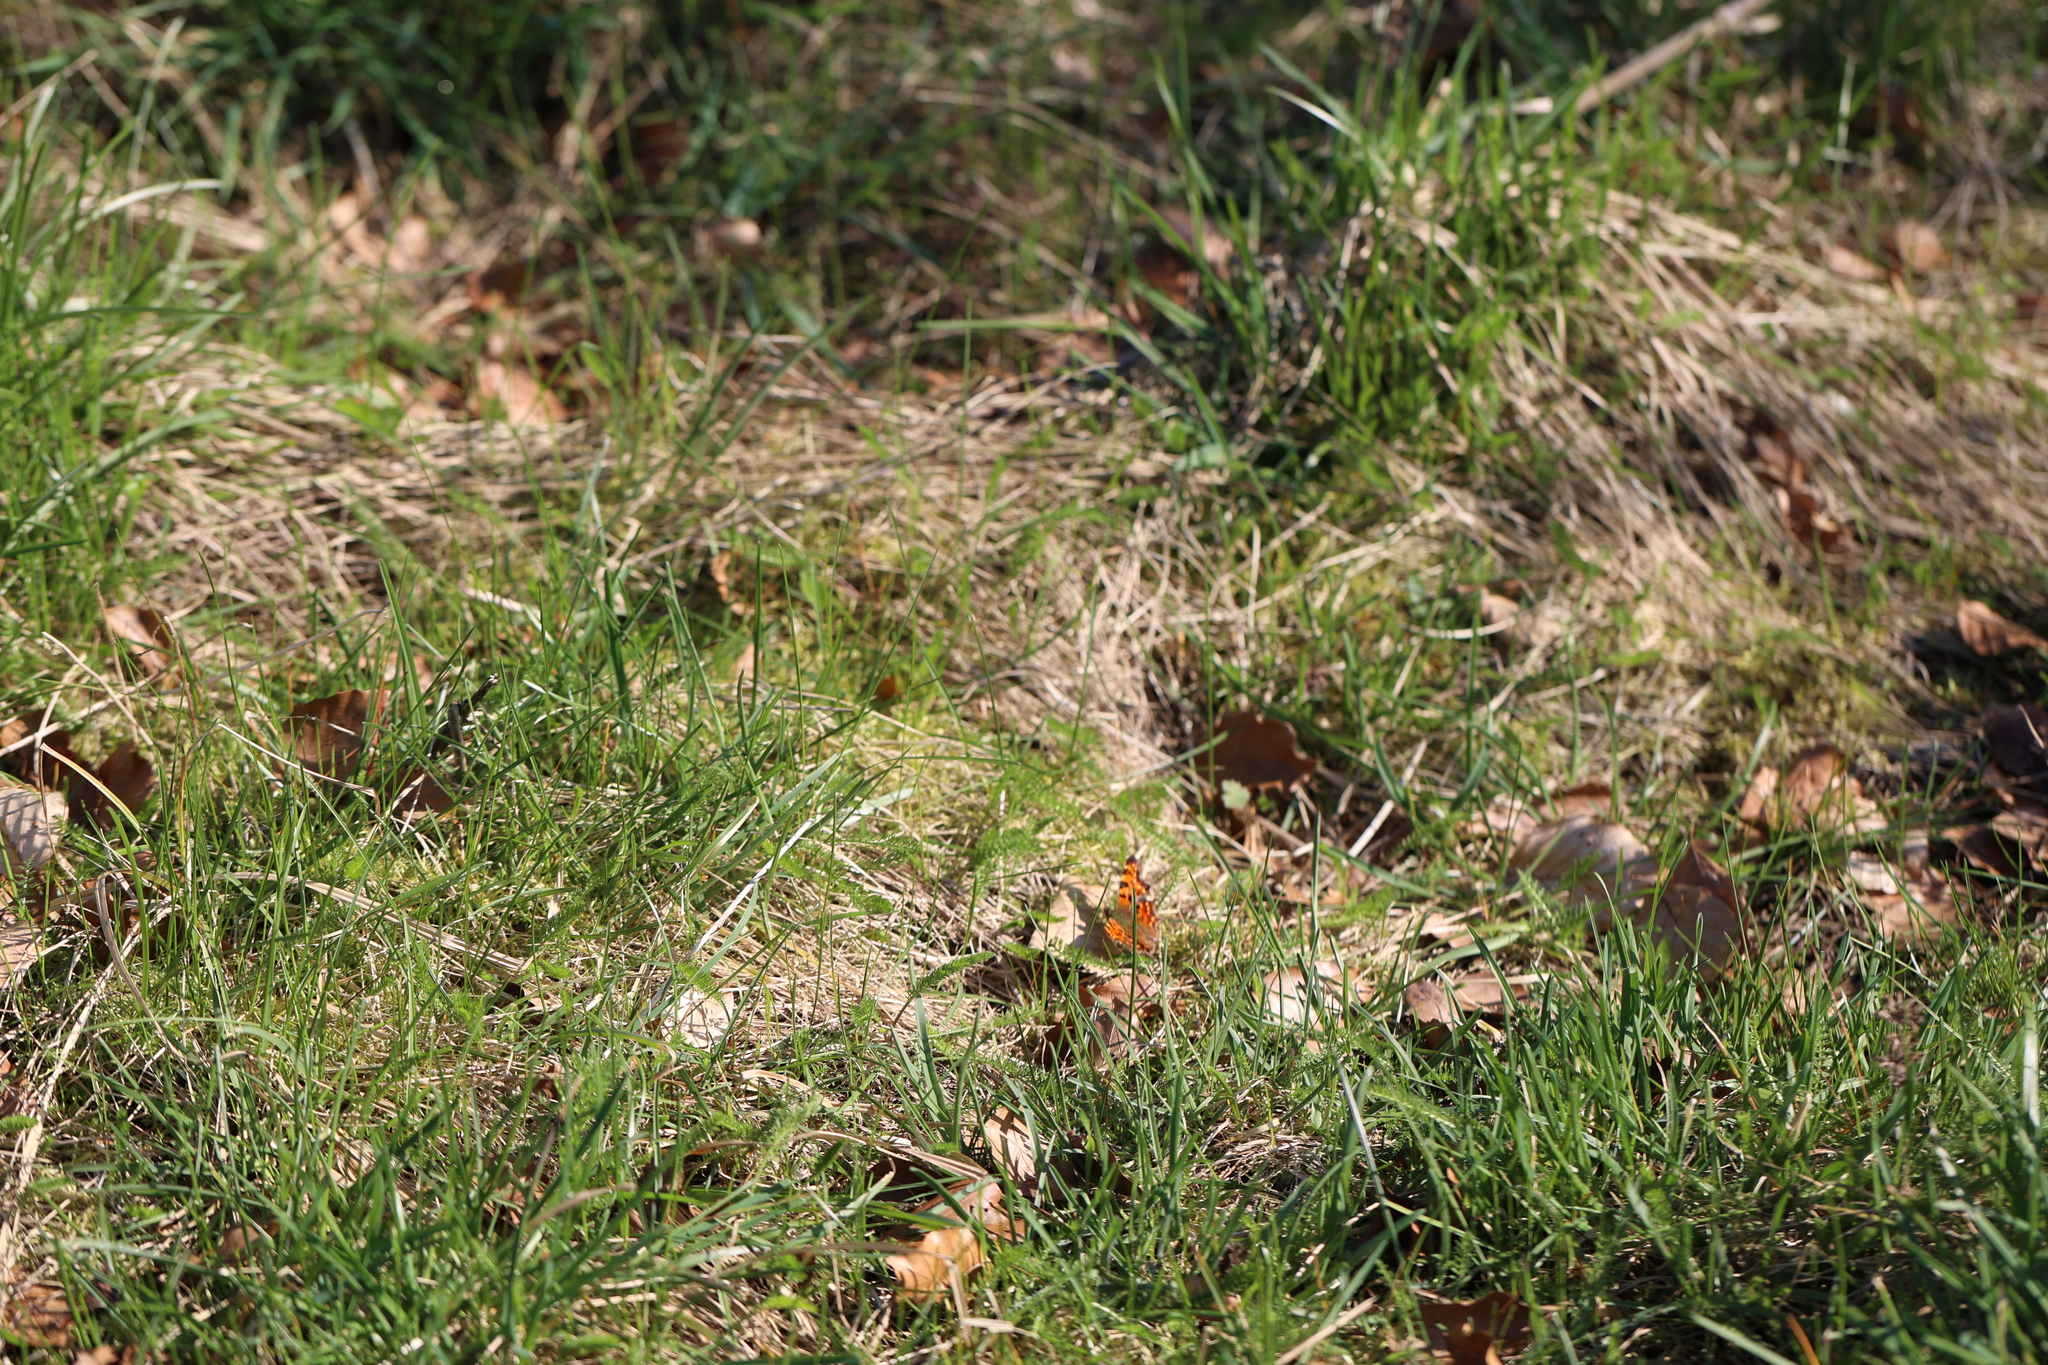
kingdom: Animalia
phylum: Arthropoda
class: Insecta
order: Lepidoptera
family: Nymphalidae
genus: Polygonia
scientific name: Polygonia c-album
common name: Comma
